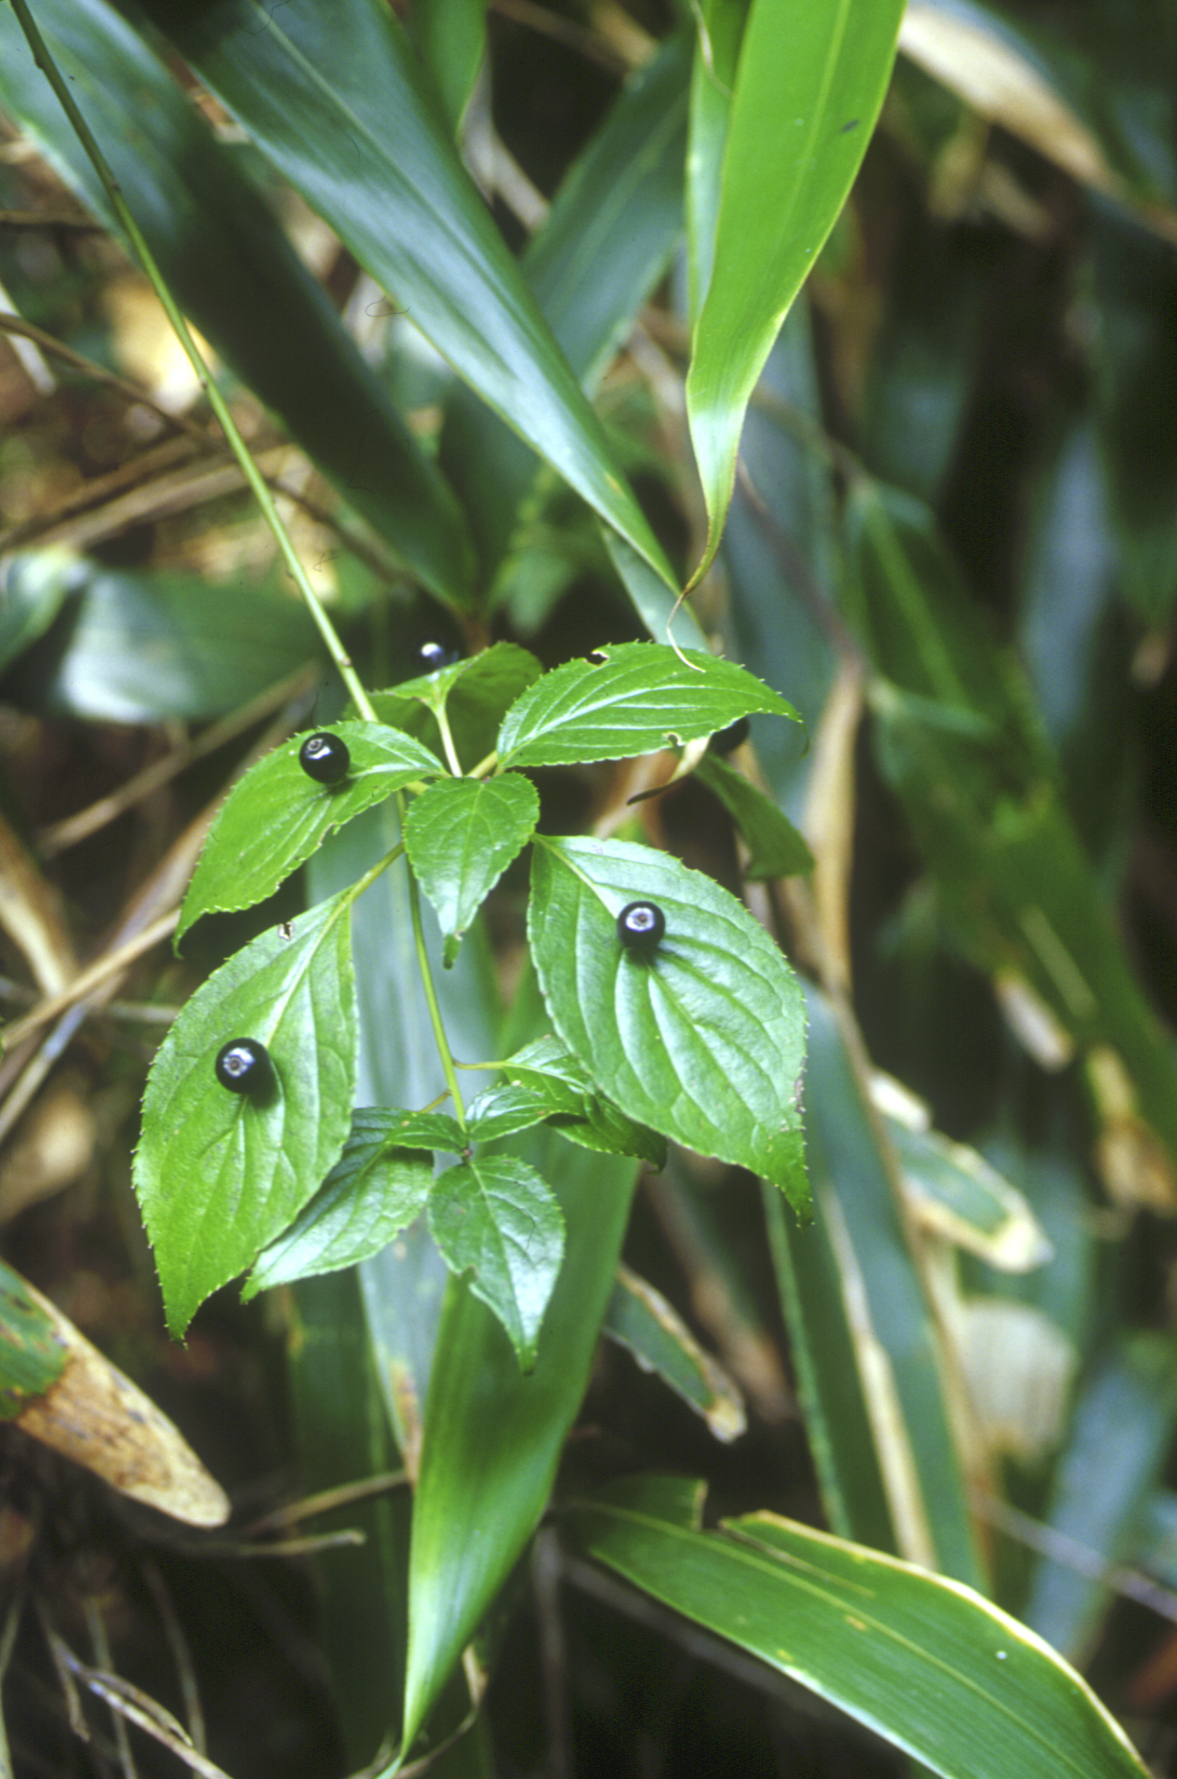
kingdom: Plantae
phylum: Tracheophyta
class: Magnoliopsida
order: Aquifoliales
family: Helwingiaceae
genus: Helwingia
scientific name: Helwingia japonica
